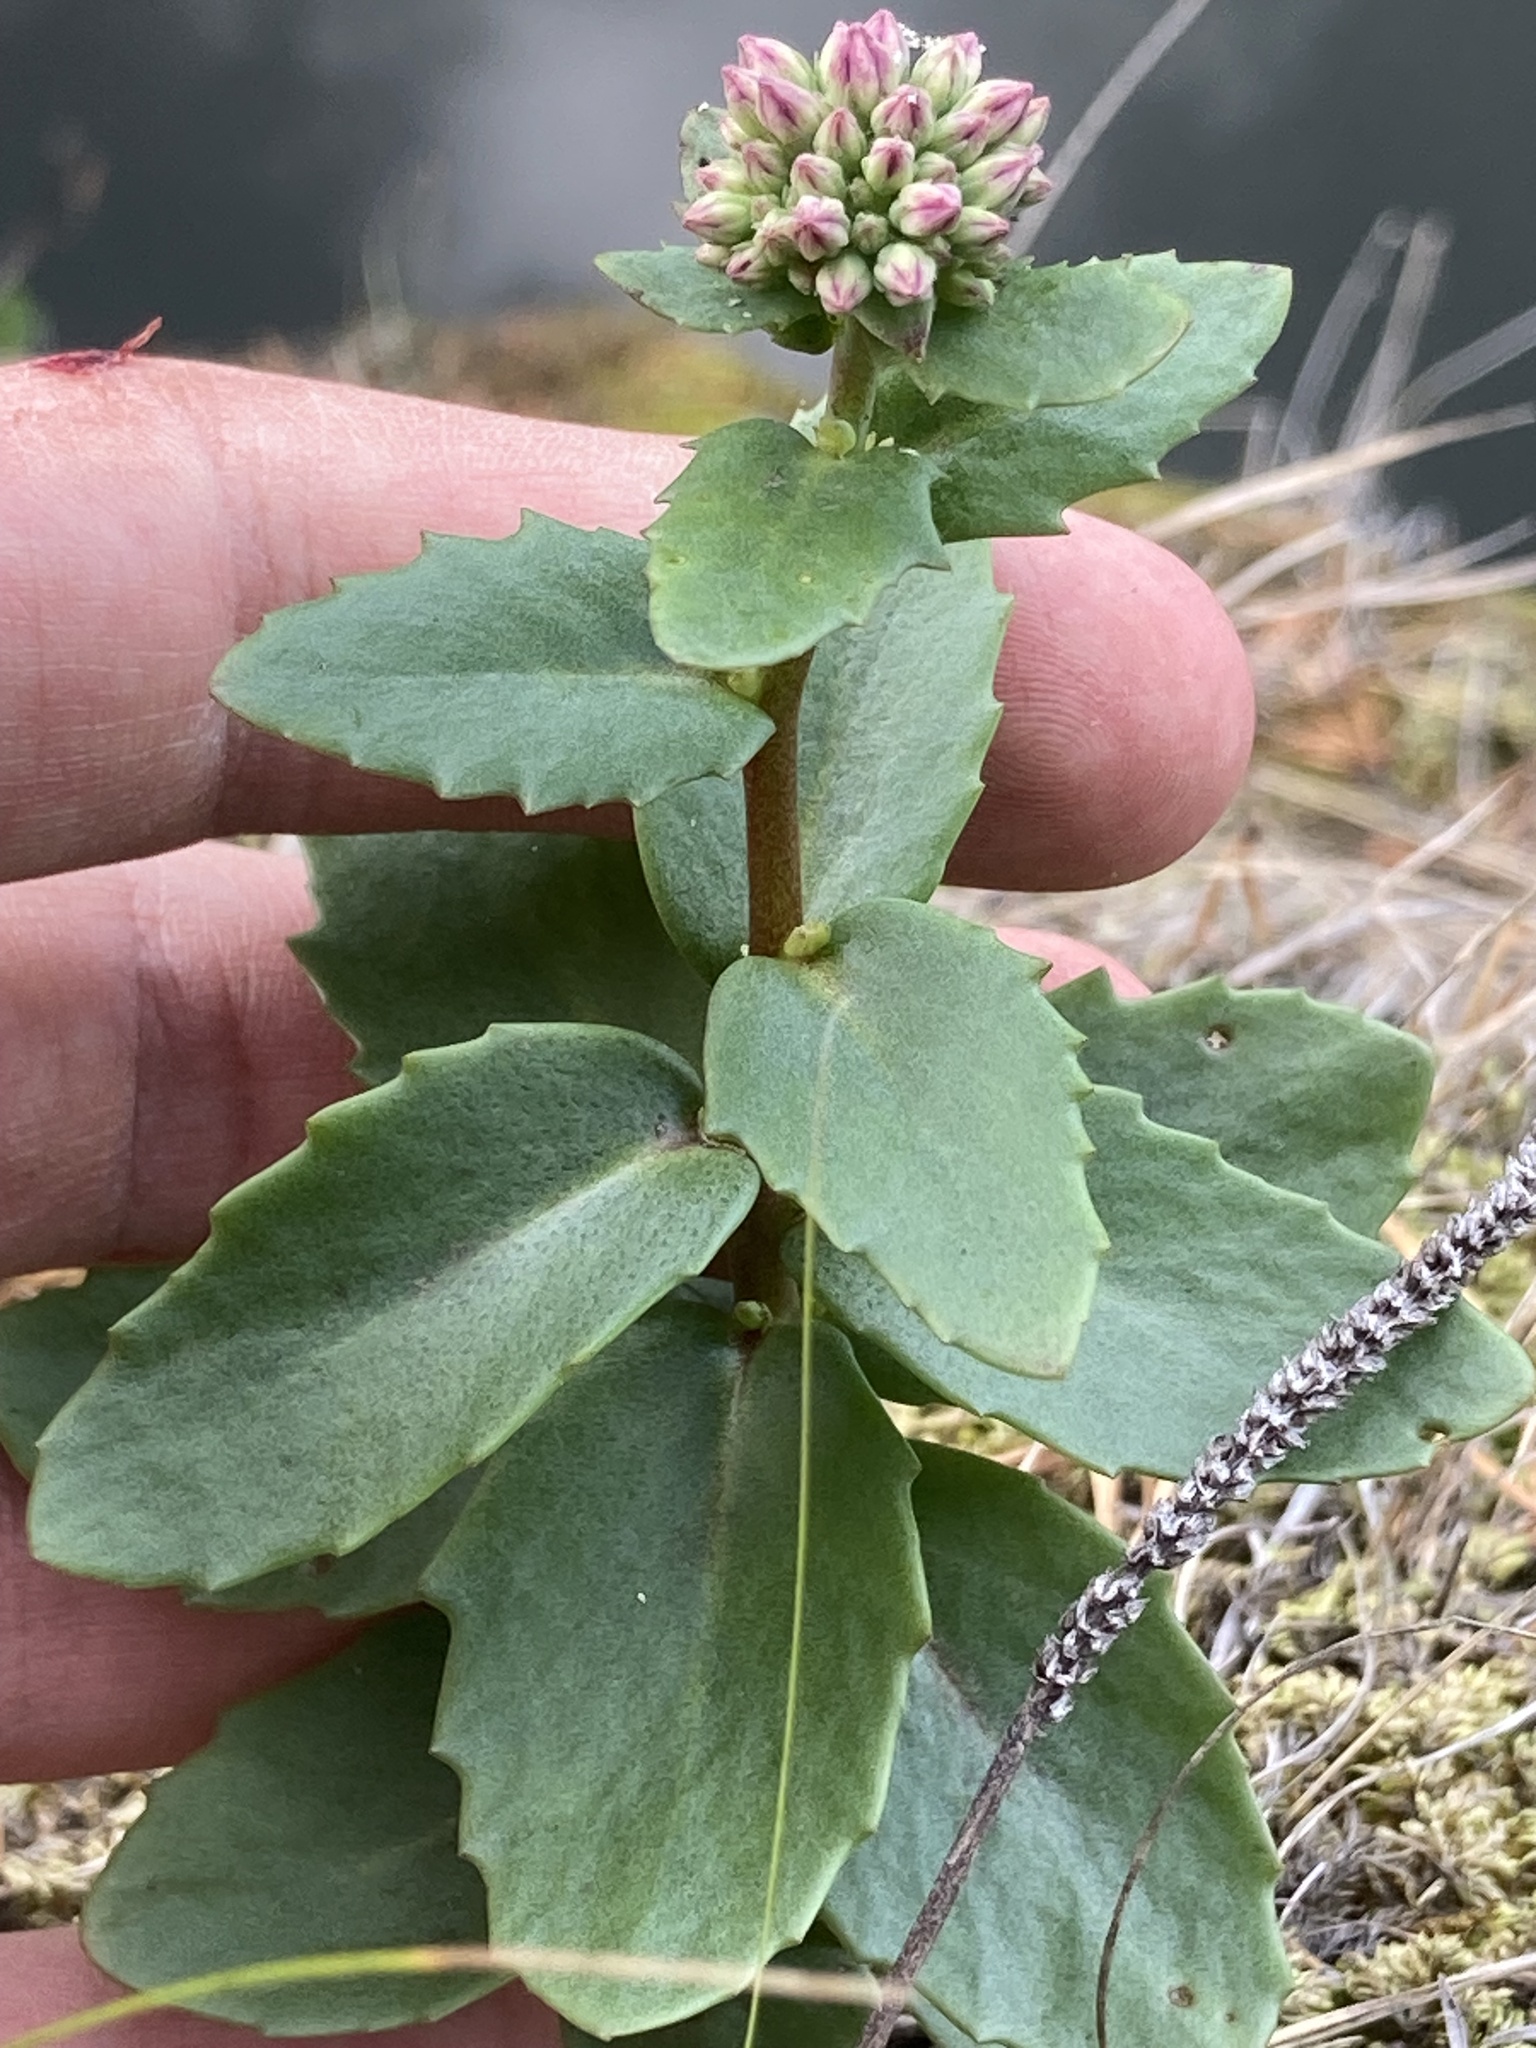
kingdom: Plantae
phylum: Tracheophyta
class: Magnoliopsida
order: Saxifragales
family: Crassulaceae
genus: Hylotelephium
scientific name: Hylotelephium telephium
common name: Live-forever
